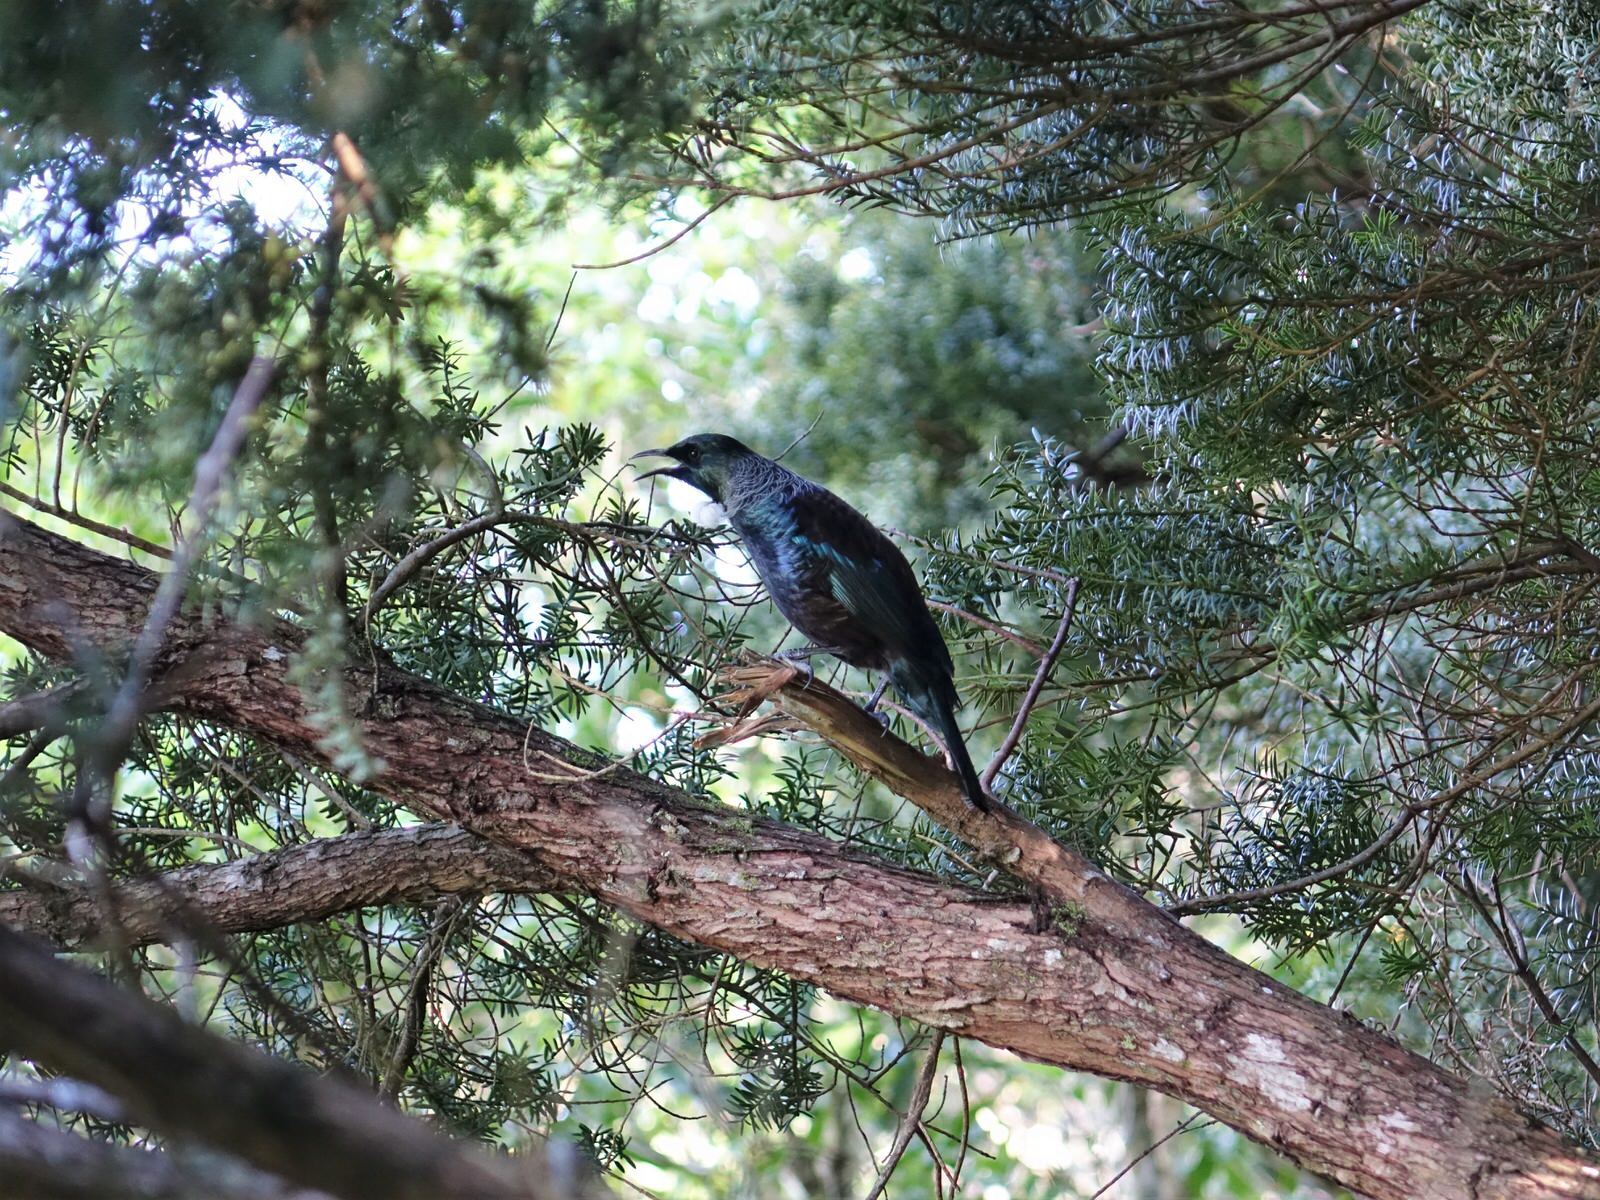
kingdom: Animalia
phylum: Chordata
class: Aves
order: Passeriformes
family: Meliphagidae
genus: Prosthemadera
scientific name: Prosthemadera novaeseelandiae
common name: Tui
